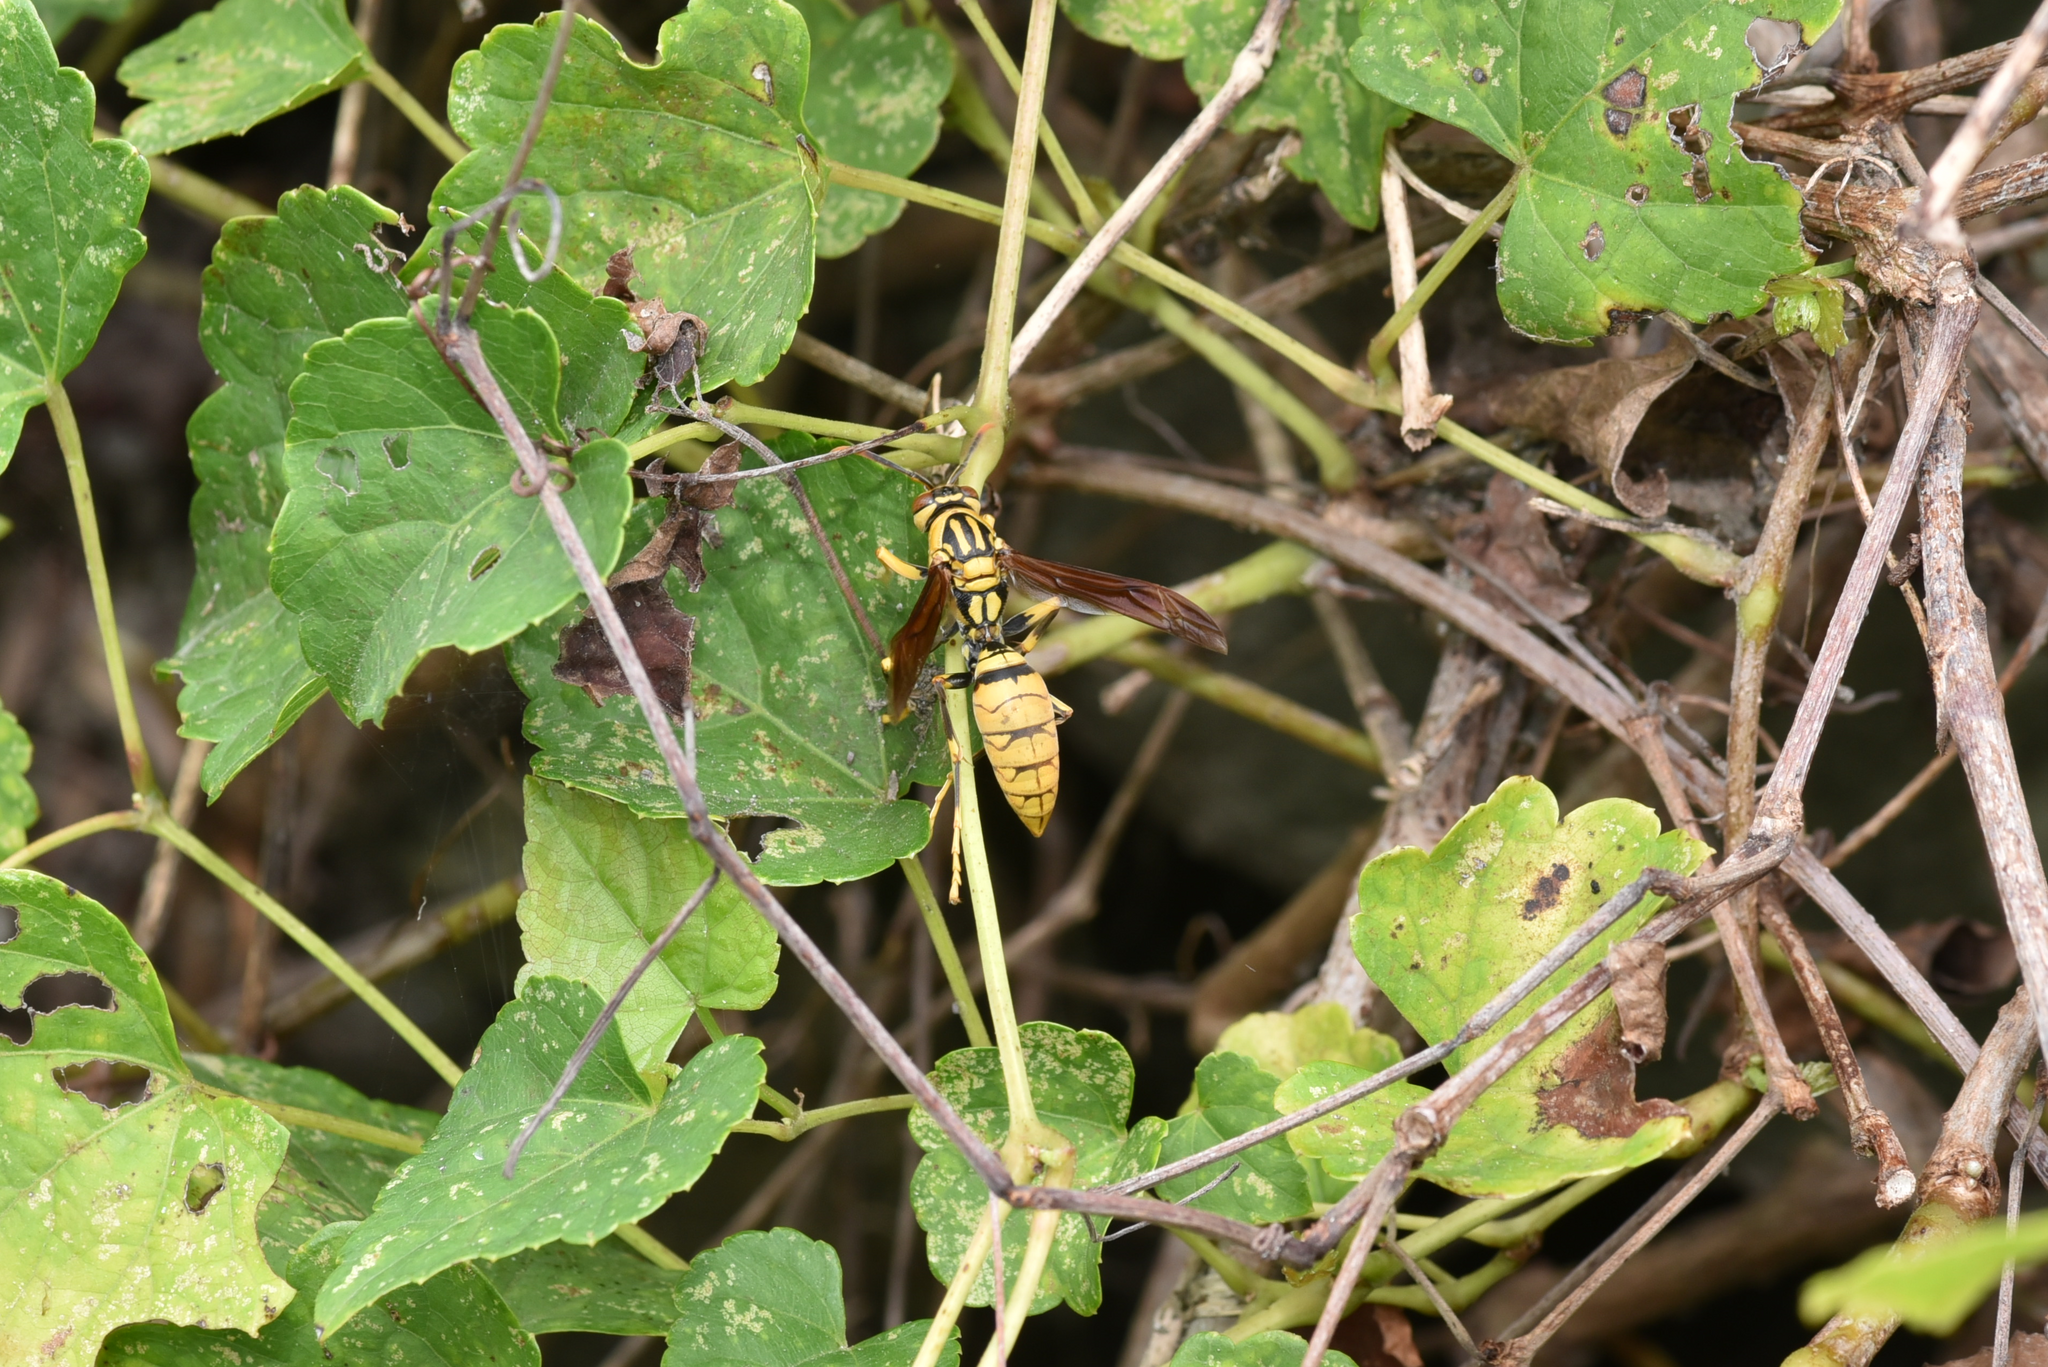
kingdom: Animalia
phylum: Arthropoda
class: Insecta
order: Hymenoptera
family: Eumenidae
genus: Polistes
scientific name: Polistes rothneyi
